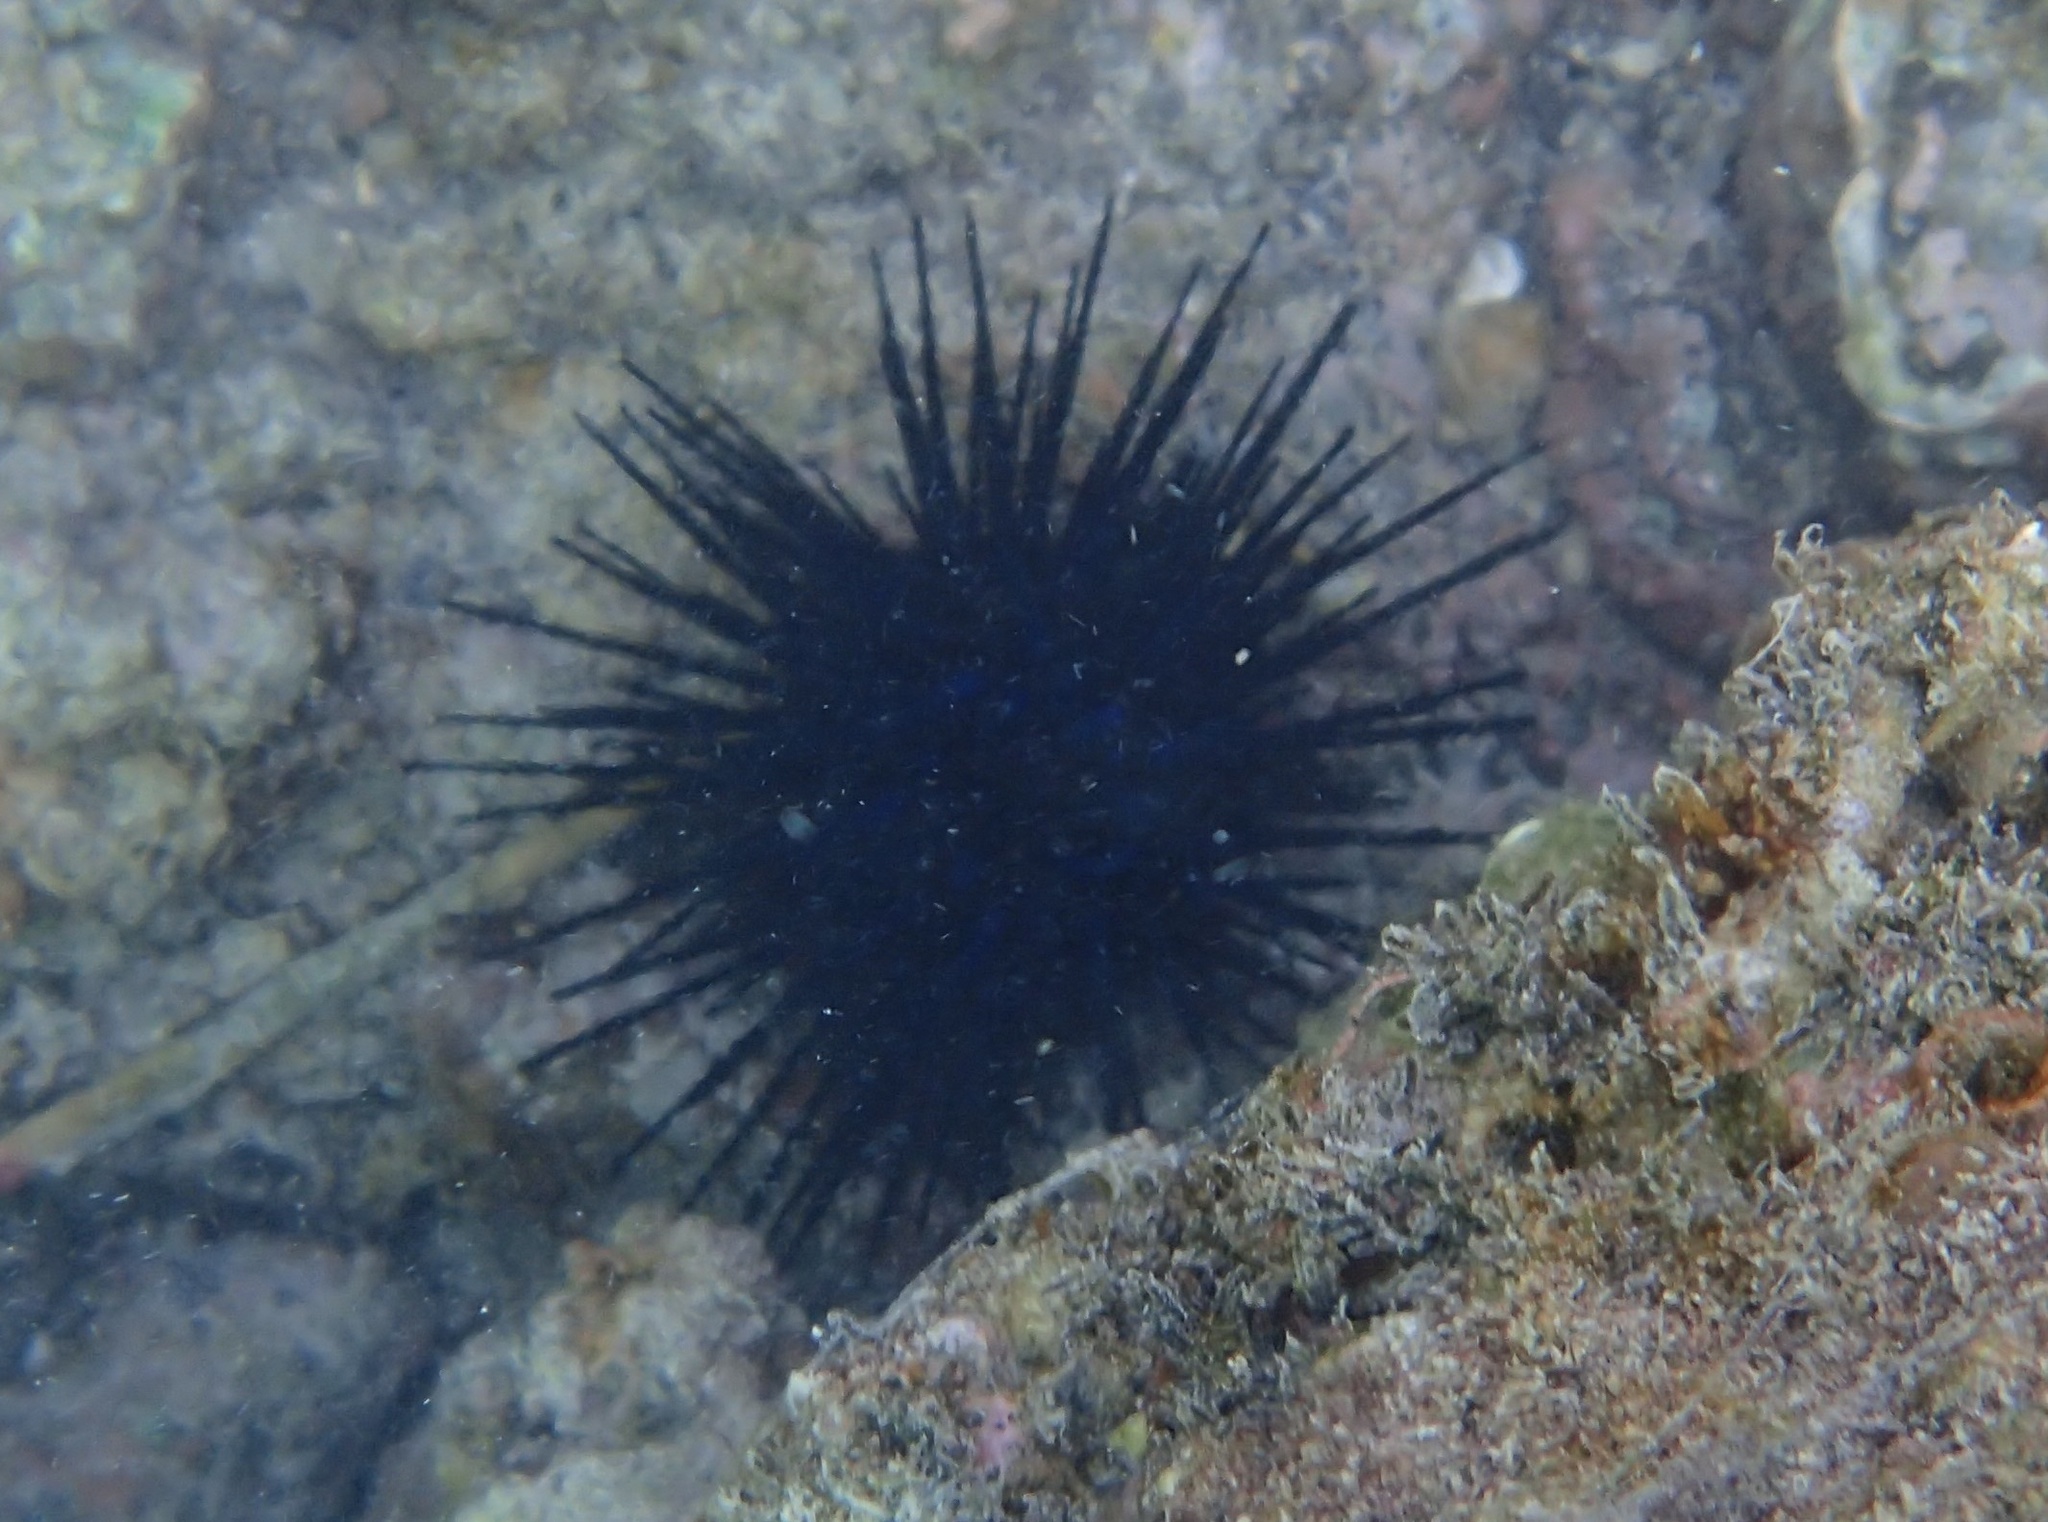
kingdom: Animalia
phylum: Echinodermata
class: Echinoidea
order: Diadematoida
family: Diadematidae
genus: Echinothrix
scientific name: Echinothrix diadema
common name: Schwarzer diademseeigel
